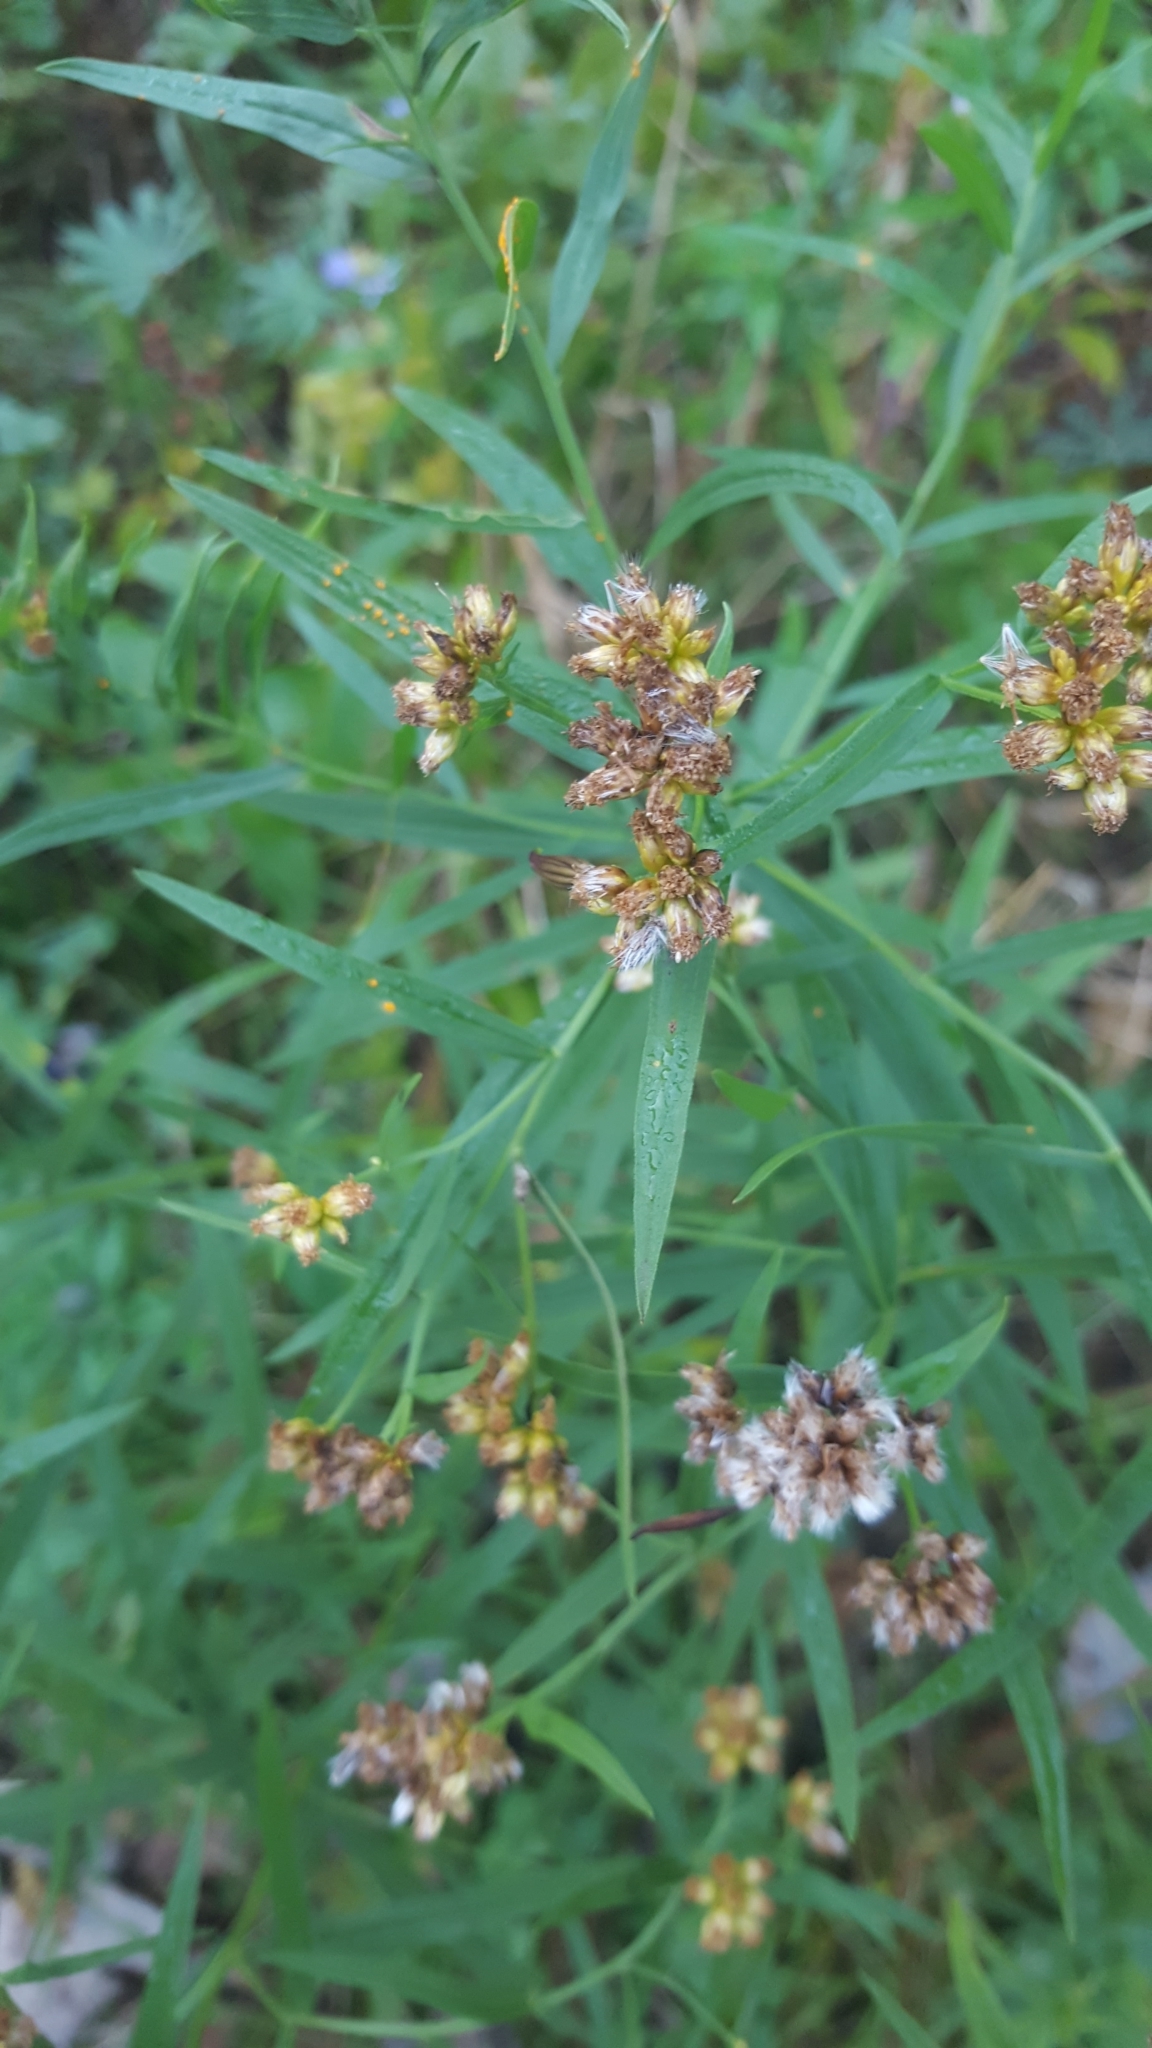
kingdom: Plantae
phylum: Tracheophyta
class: Magnoliopsida
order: Asterales
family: Asteraceae
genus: Euthamia
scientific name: Euthamia graminifolia
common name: Common goldentop
